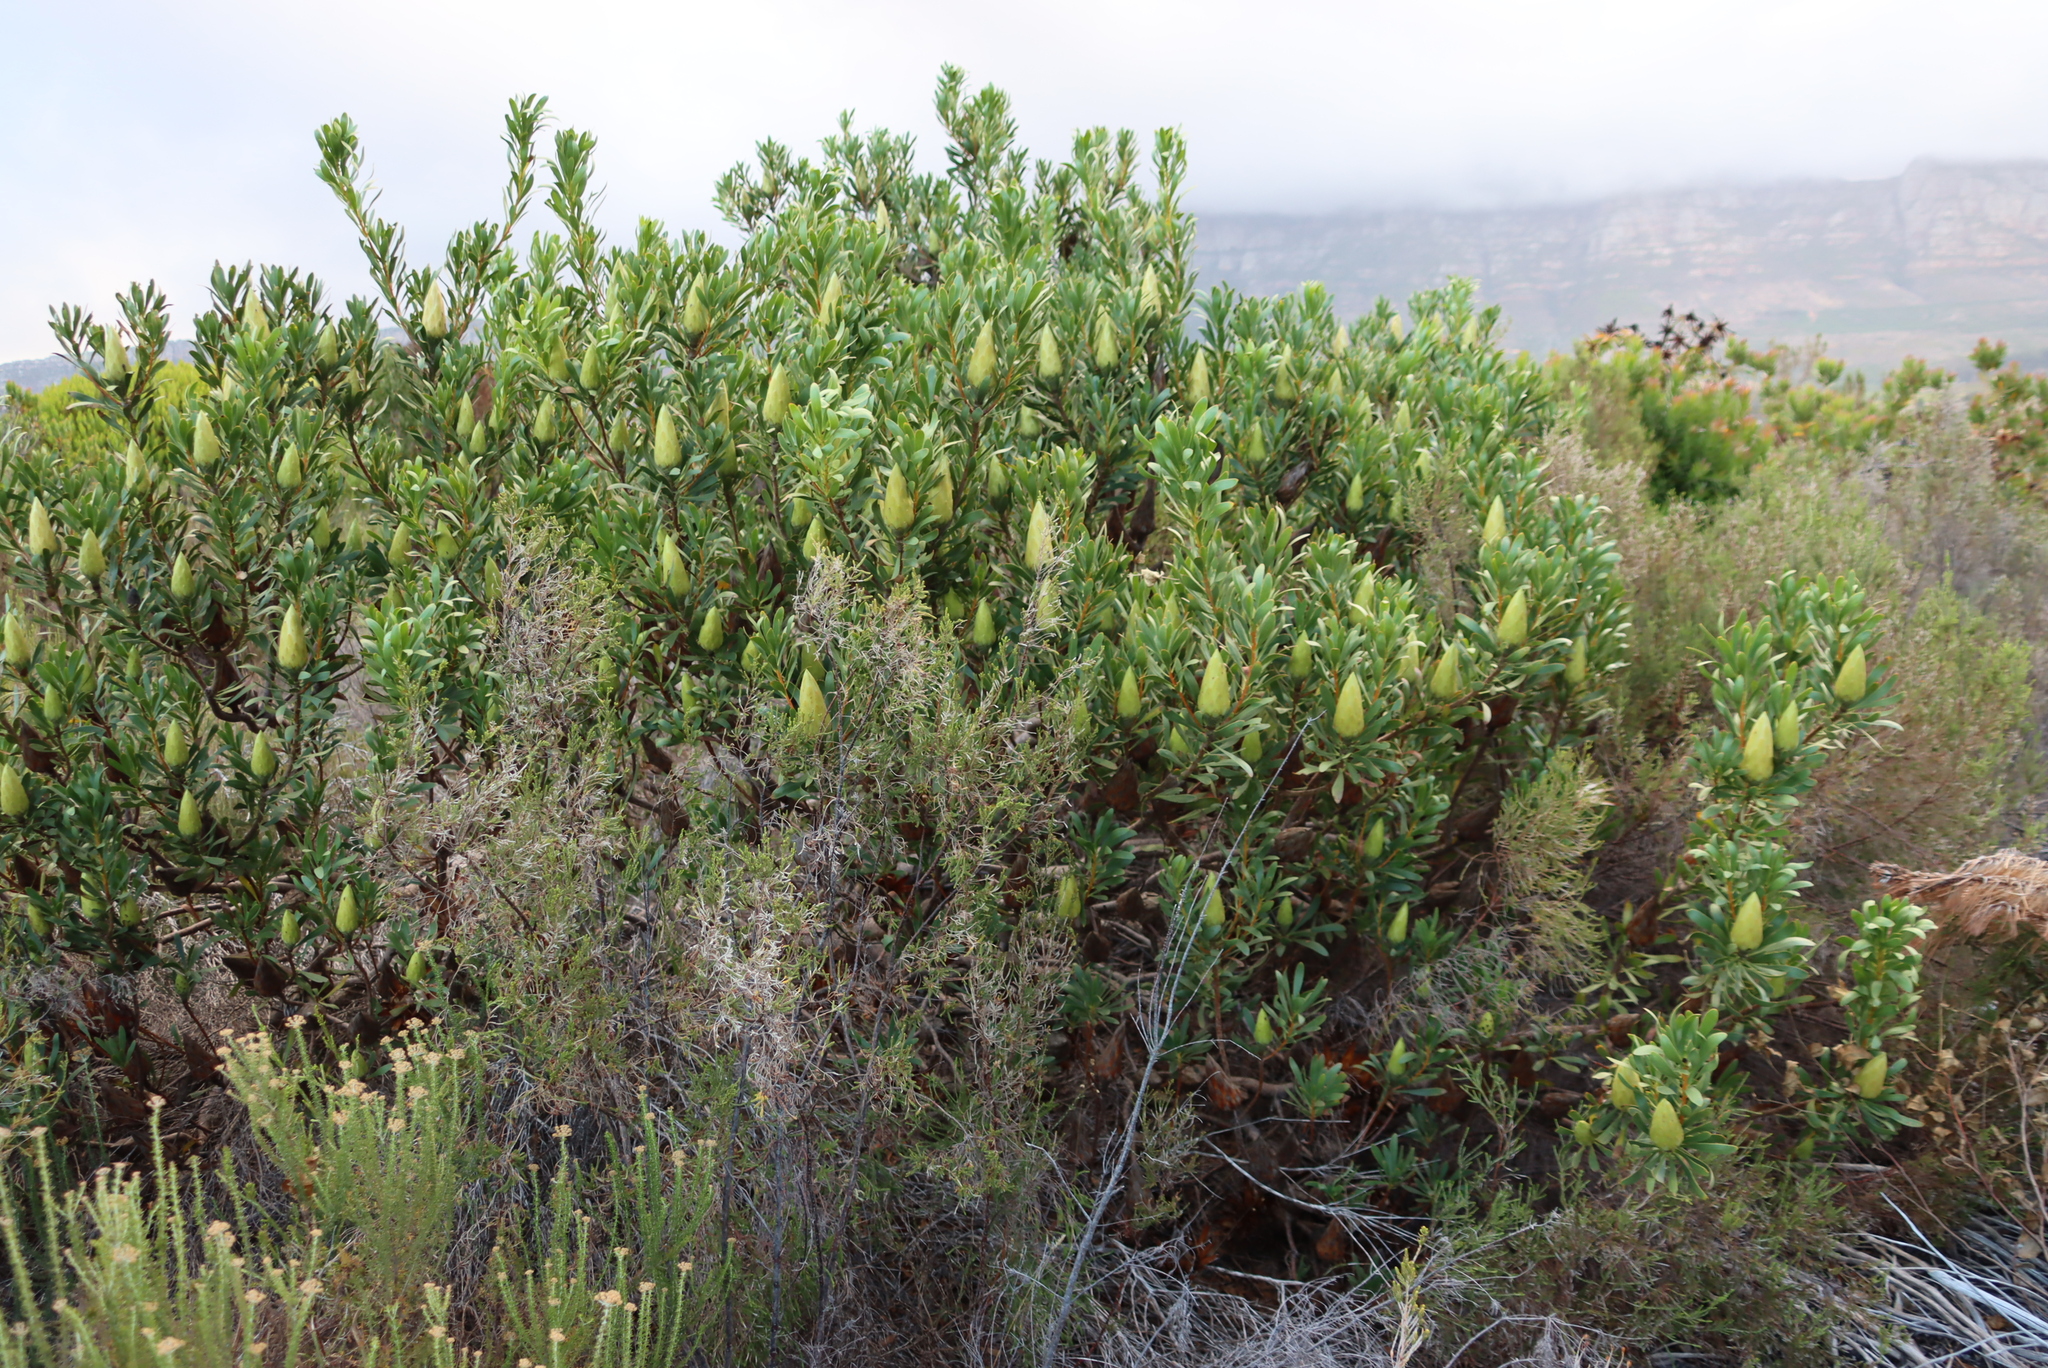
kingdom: Plantae
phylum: Tracheophyta
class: Magnoliopsida
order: Proteales
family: Proteaceae
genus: Protea
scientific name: Protea repens
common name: Sugarbush
